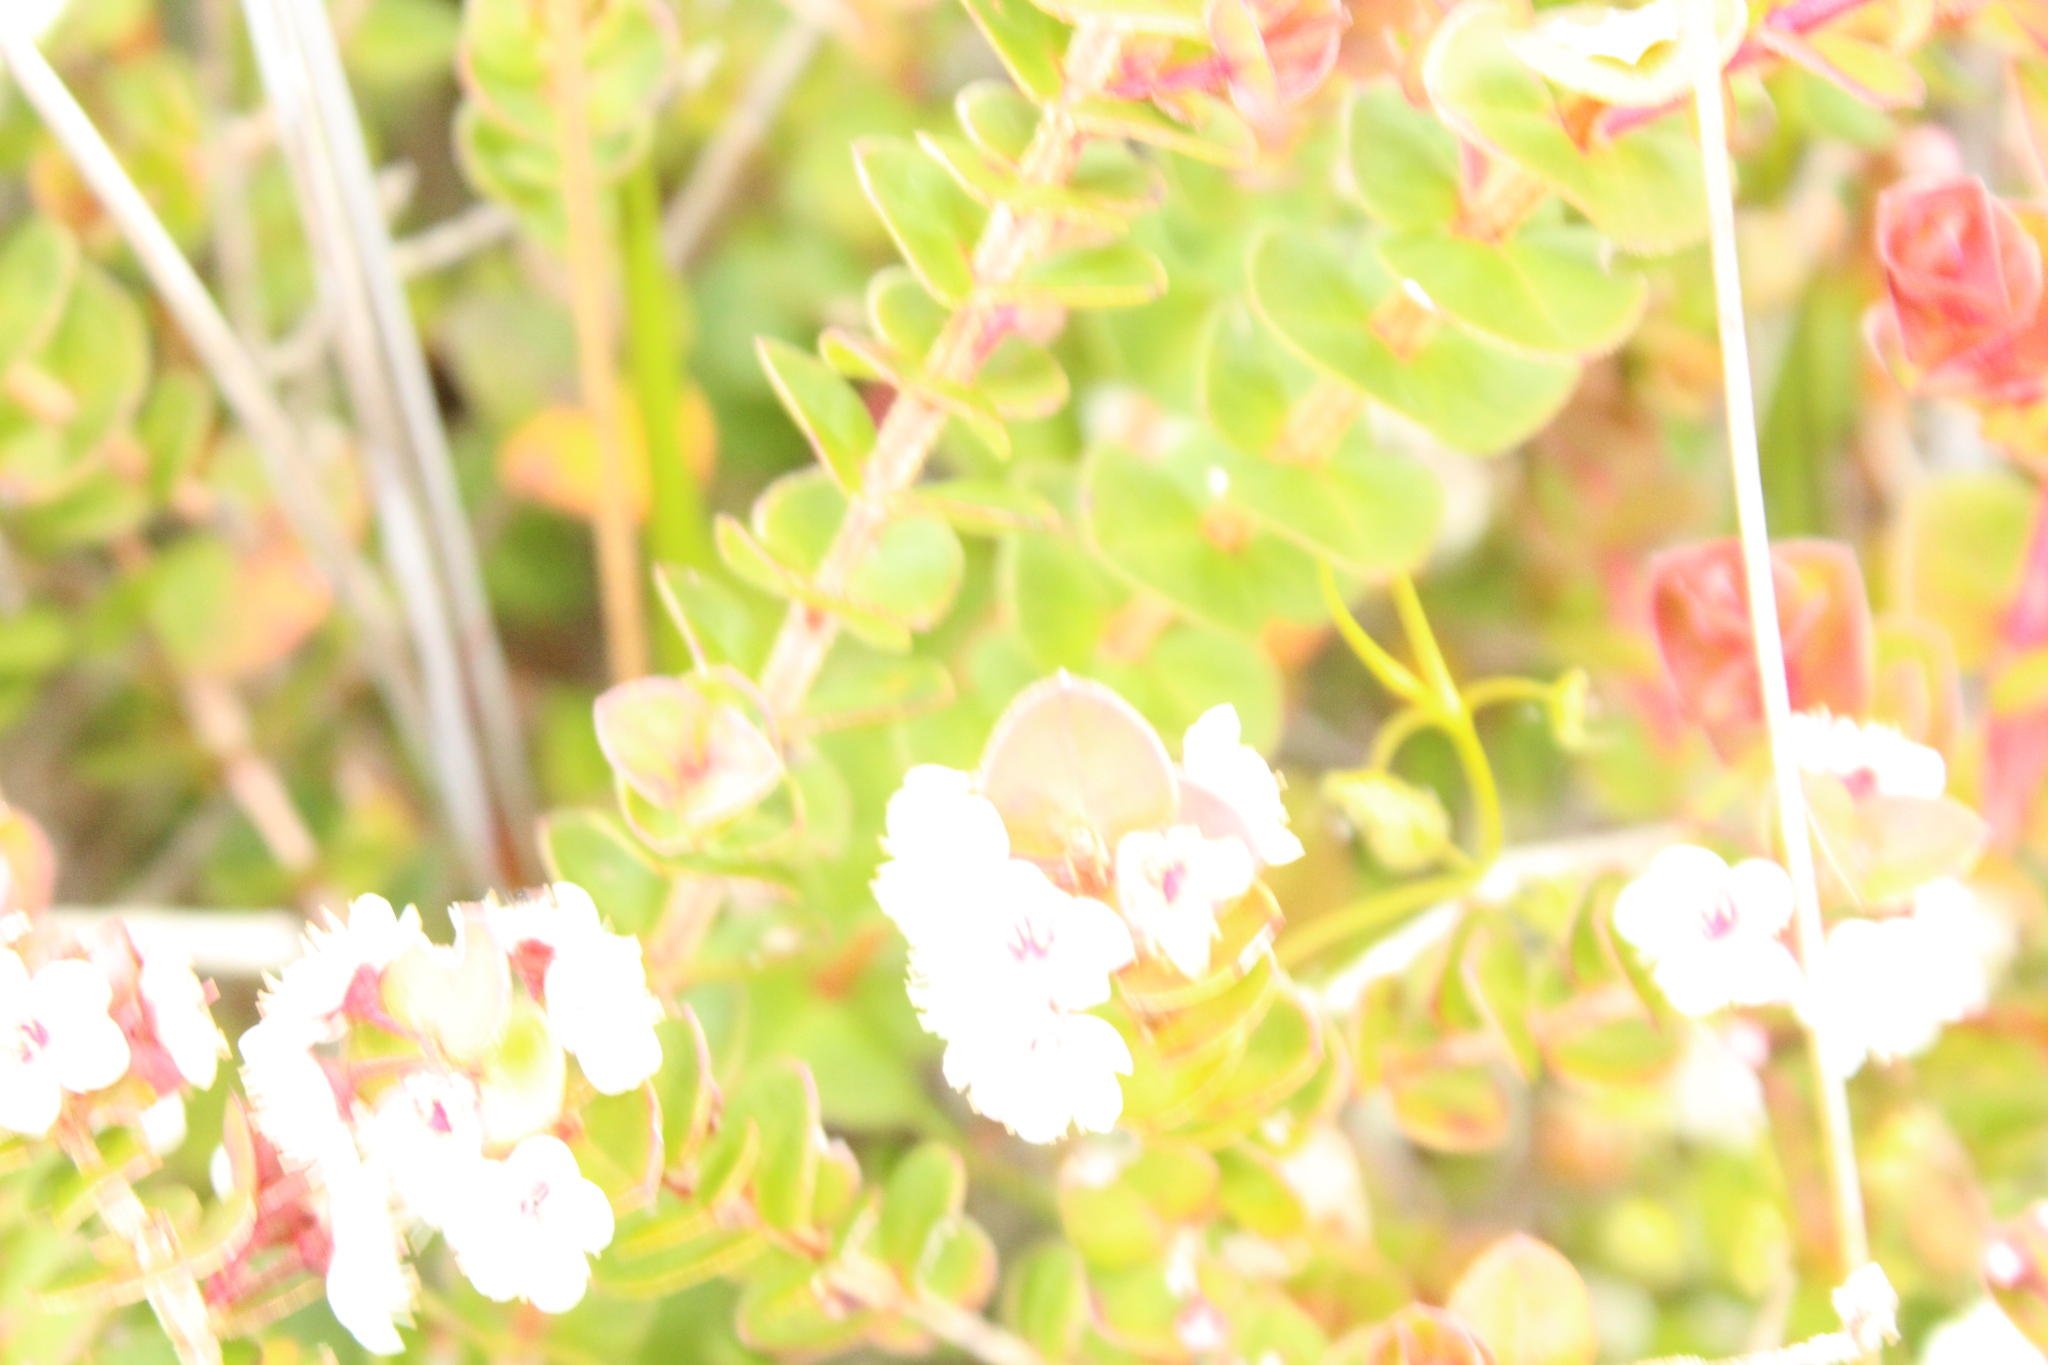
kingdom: Plantae
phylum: Tracheophyta
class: Magnoliopsida
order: Myrtales
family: Myrtaceae
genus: Hypocalymma
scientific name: Hypocalymma cordifolium
